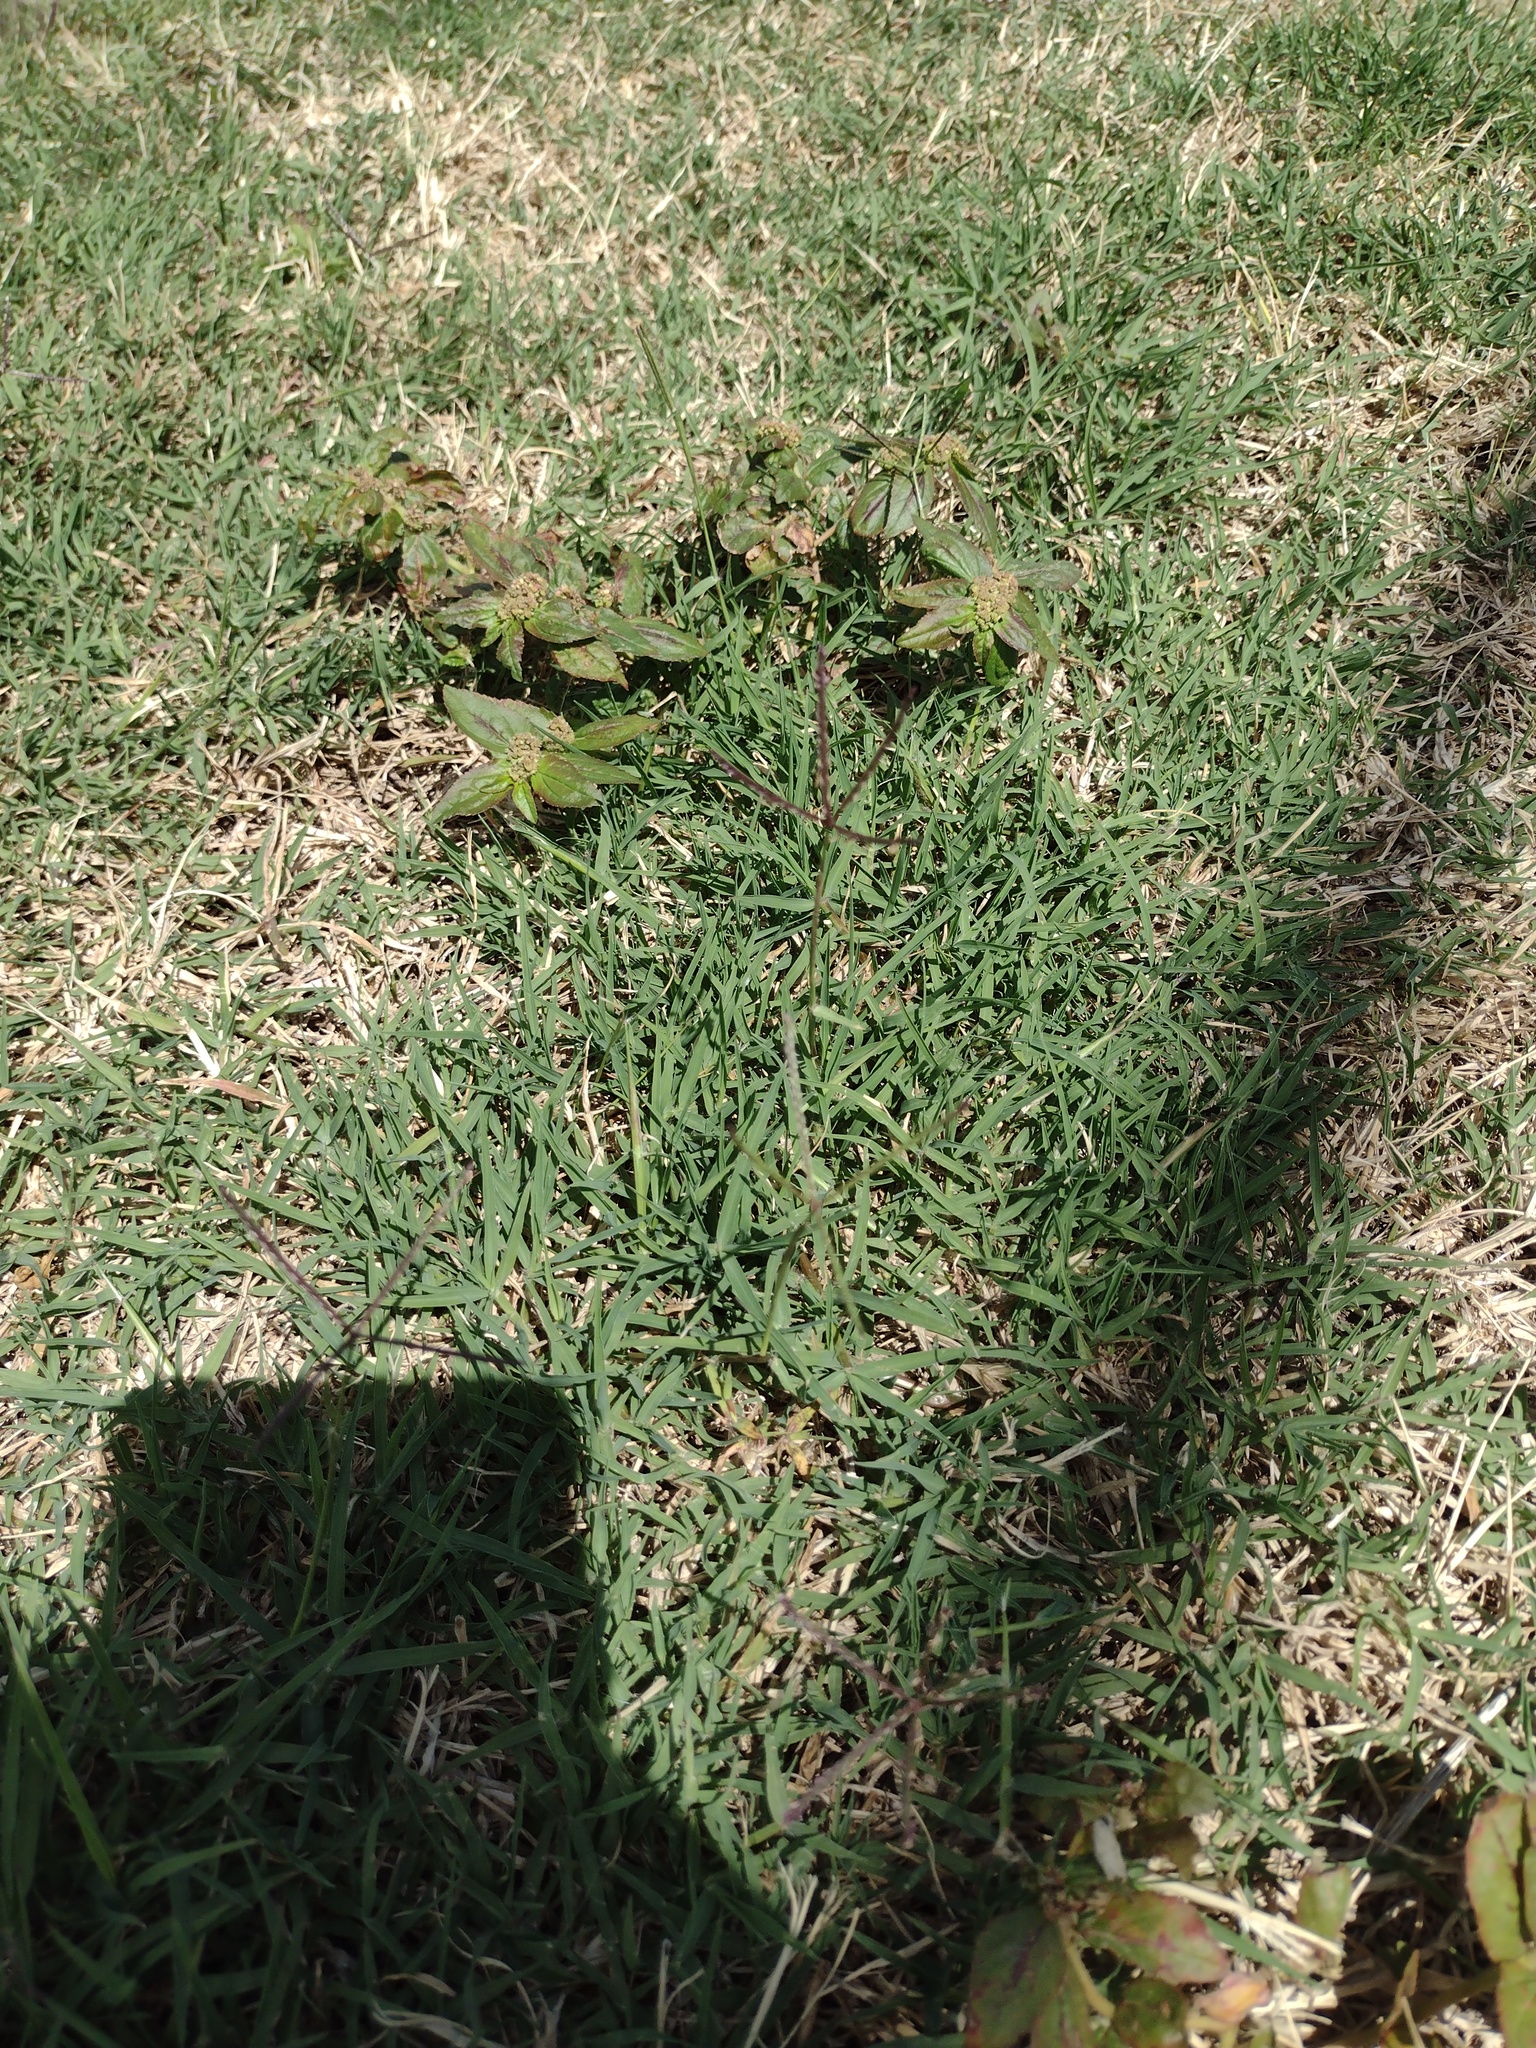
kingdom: Plantae
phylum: Tracheophyta
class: Magnoliopsida
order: Malpighiales
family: Euphorbiaceae
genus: Euphorbia
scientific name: Euphorbia hirta
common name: Pillpod sandmat
